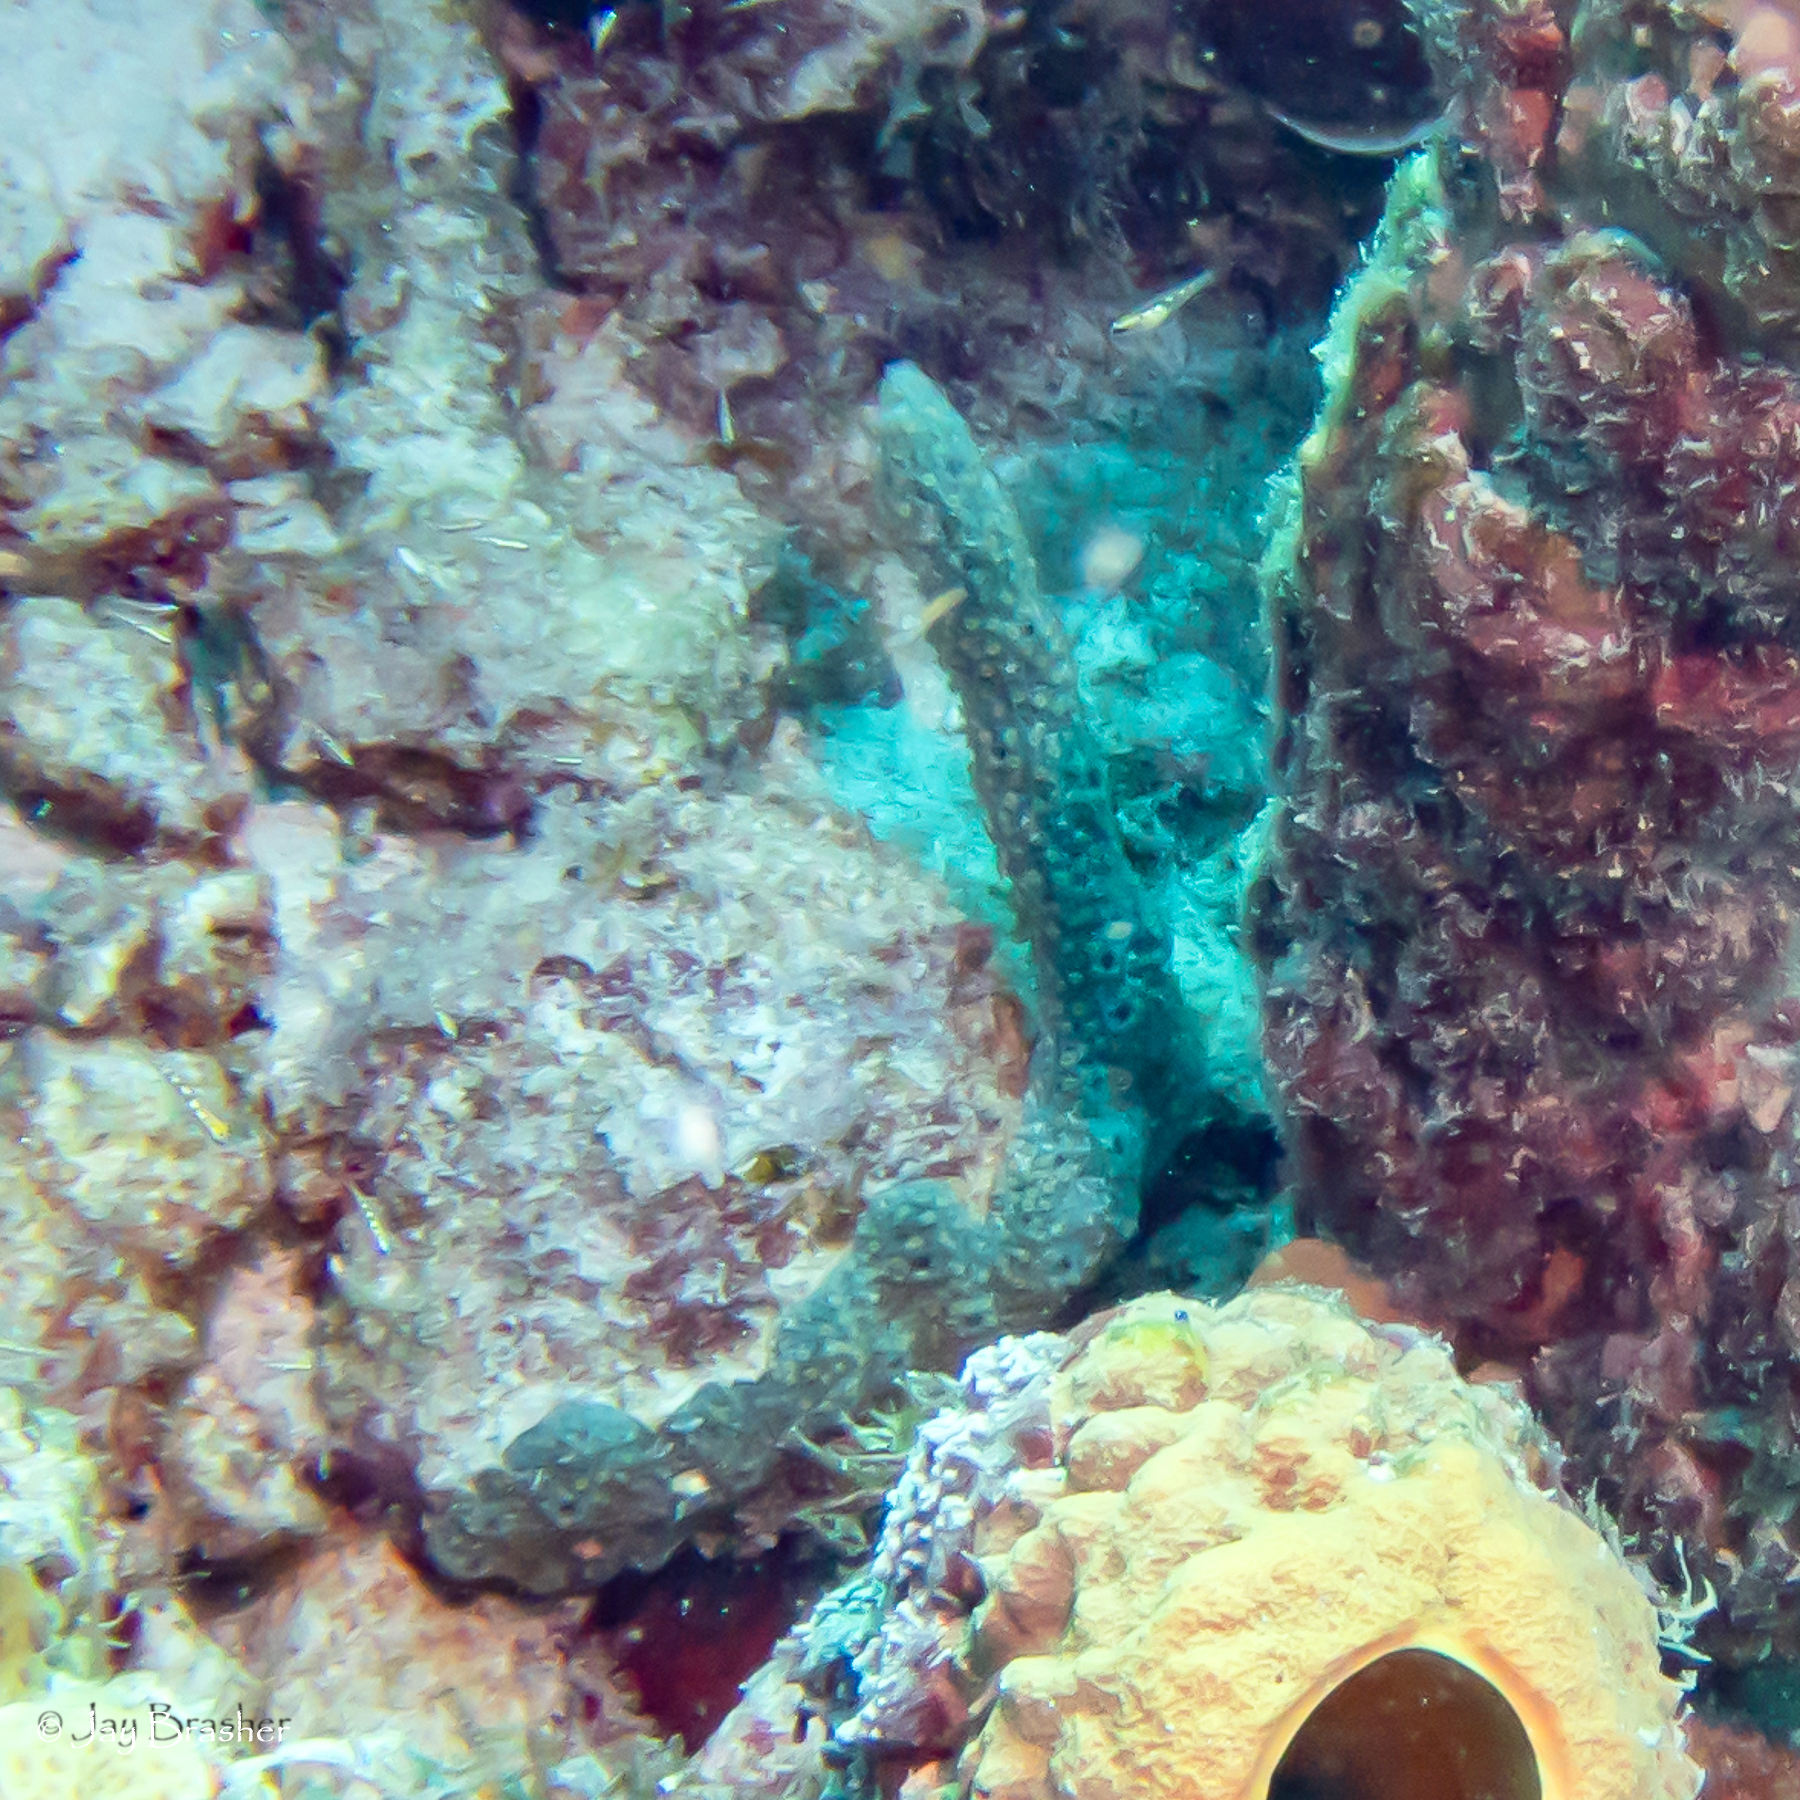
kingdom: Animalia
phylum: Porifera
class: Demospongiae
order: Haplosclerida
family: Niphatidae
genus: Niphates
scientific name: Niphates erecta
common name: Lavender rope sponge
